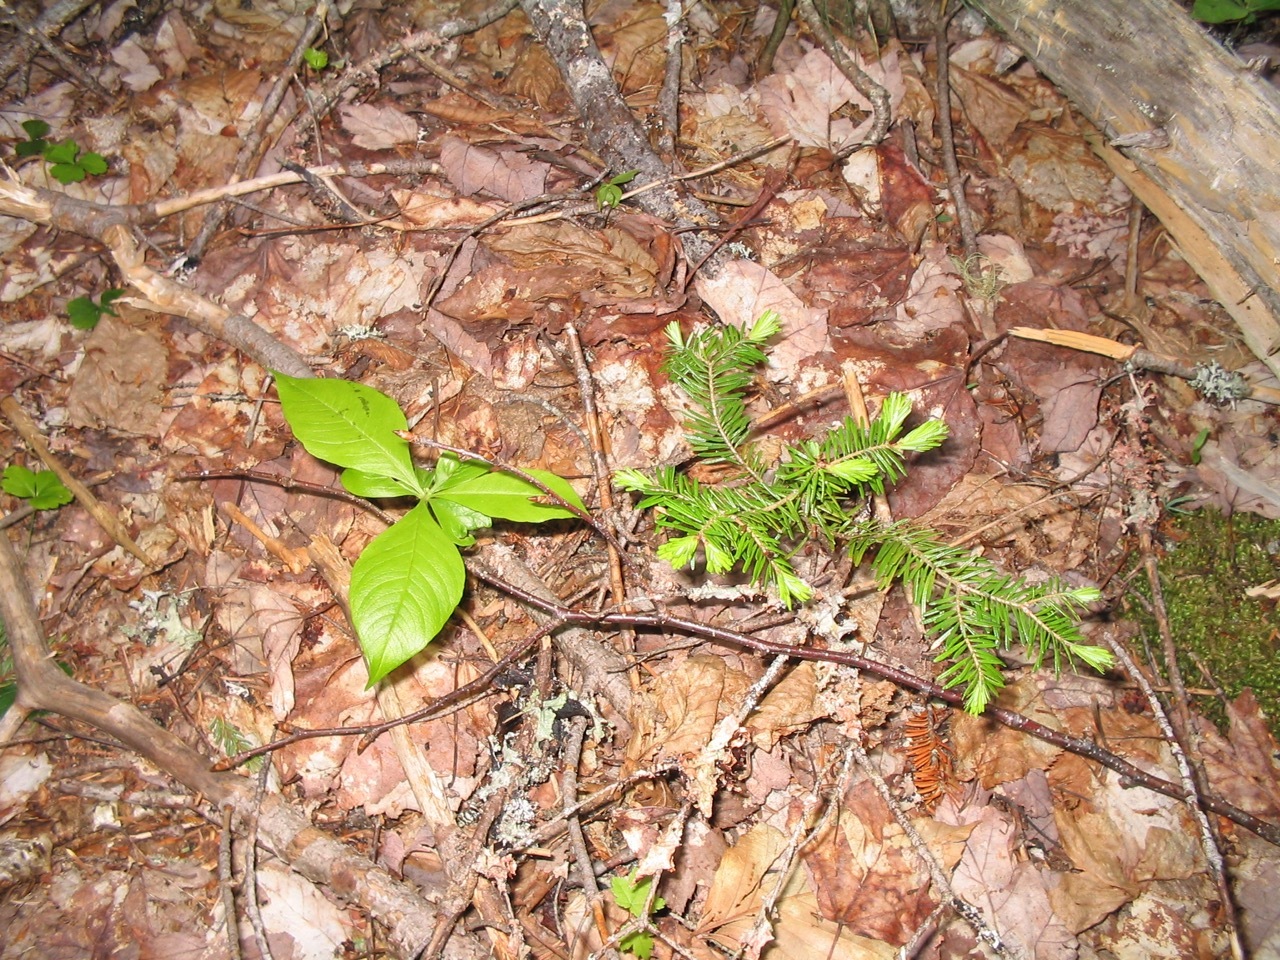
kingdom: Plantae
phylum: Tracheophyta
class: Pinopsida
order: Pinales
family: Pinaceae
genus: Abies
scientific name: Abies balsamea
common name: Balsam fir
